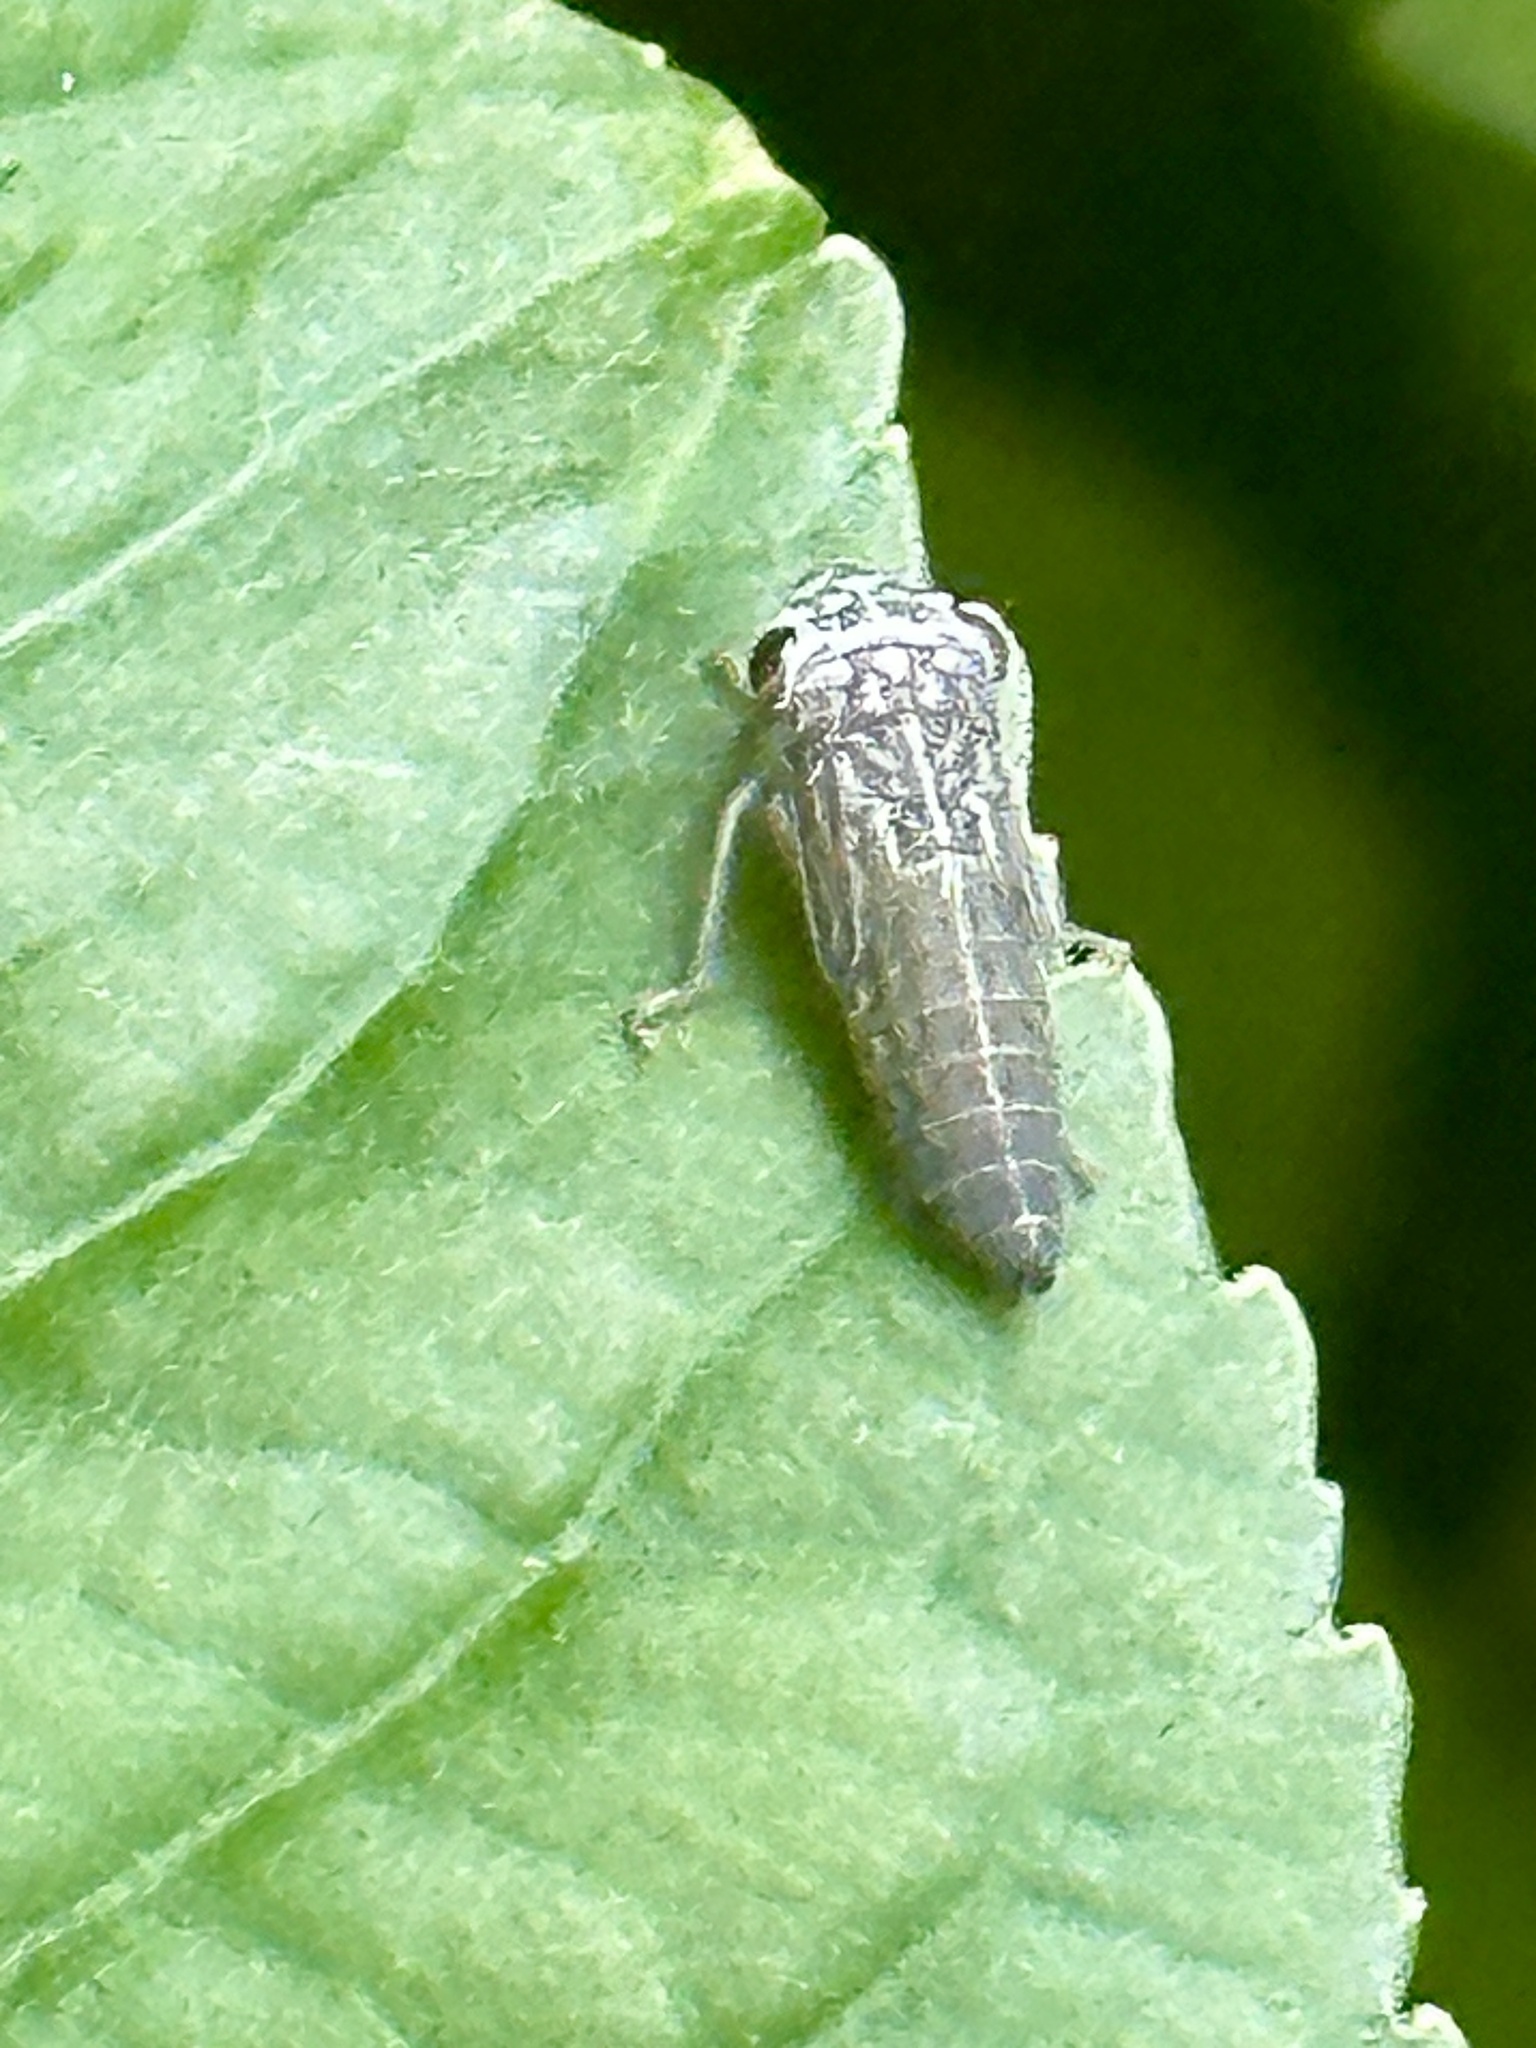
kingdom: Animalia
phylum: Arthropoda
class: Insecta
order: Hemiptera
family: Cicadellidae
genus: Oncometopia
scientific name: Oncometopia orbona
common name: Broad-headed sharpshooter
